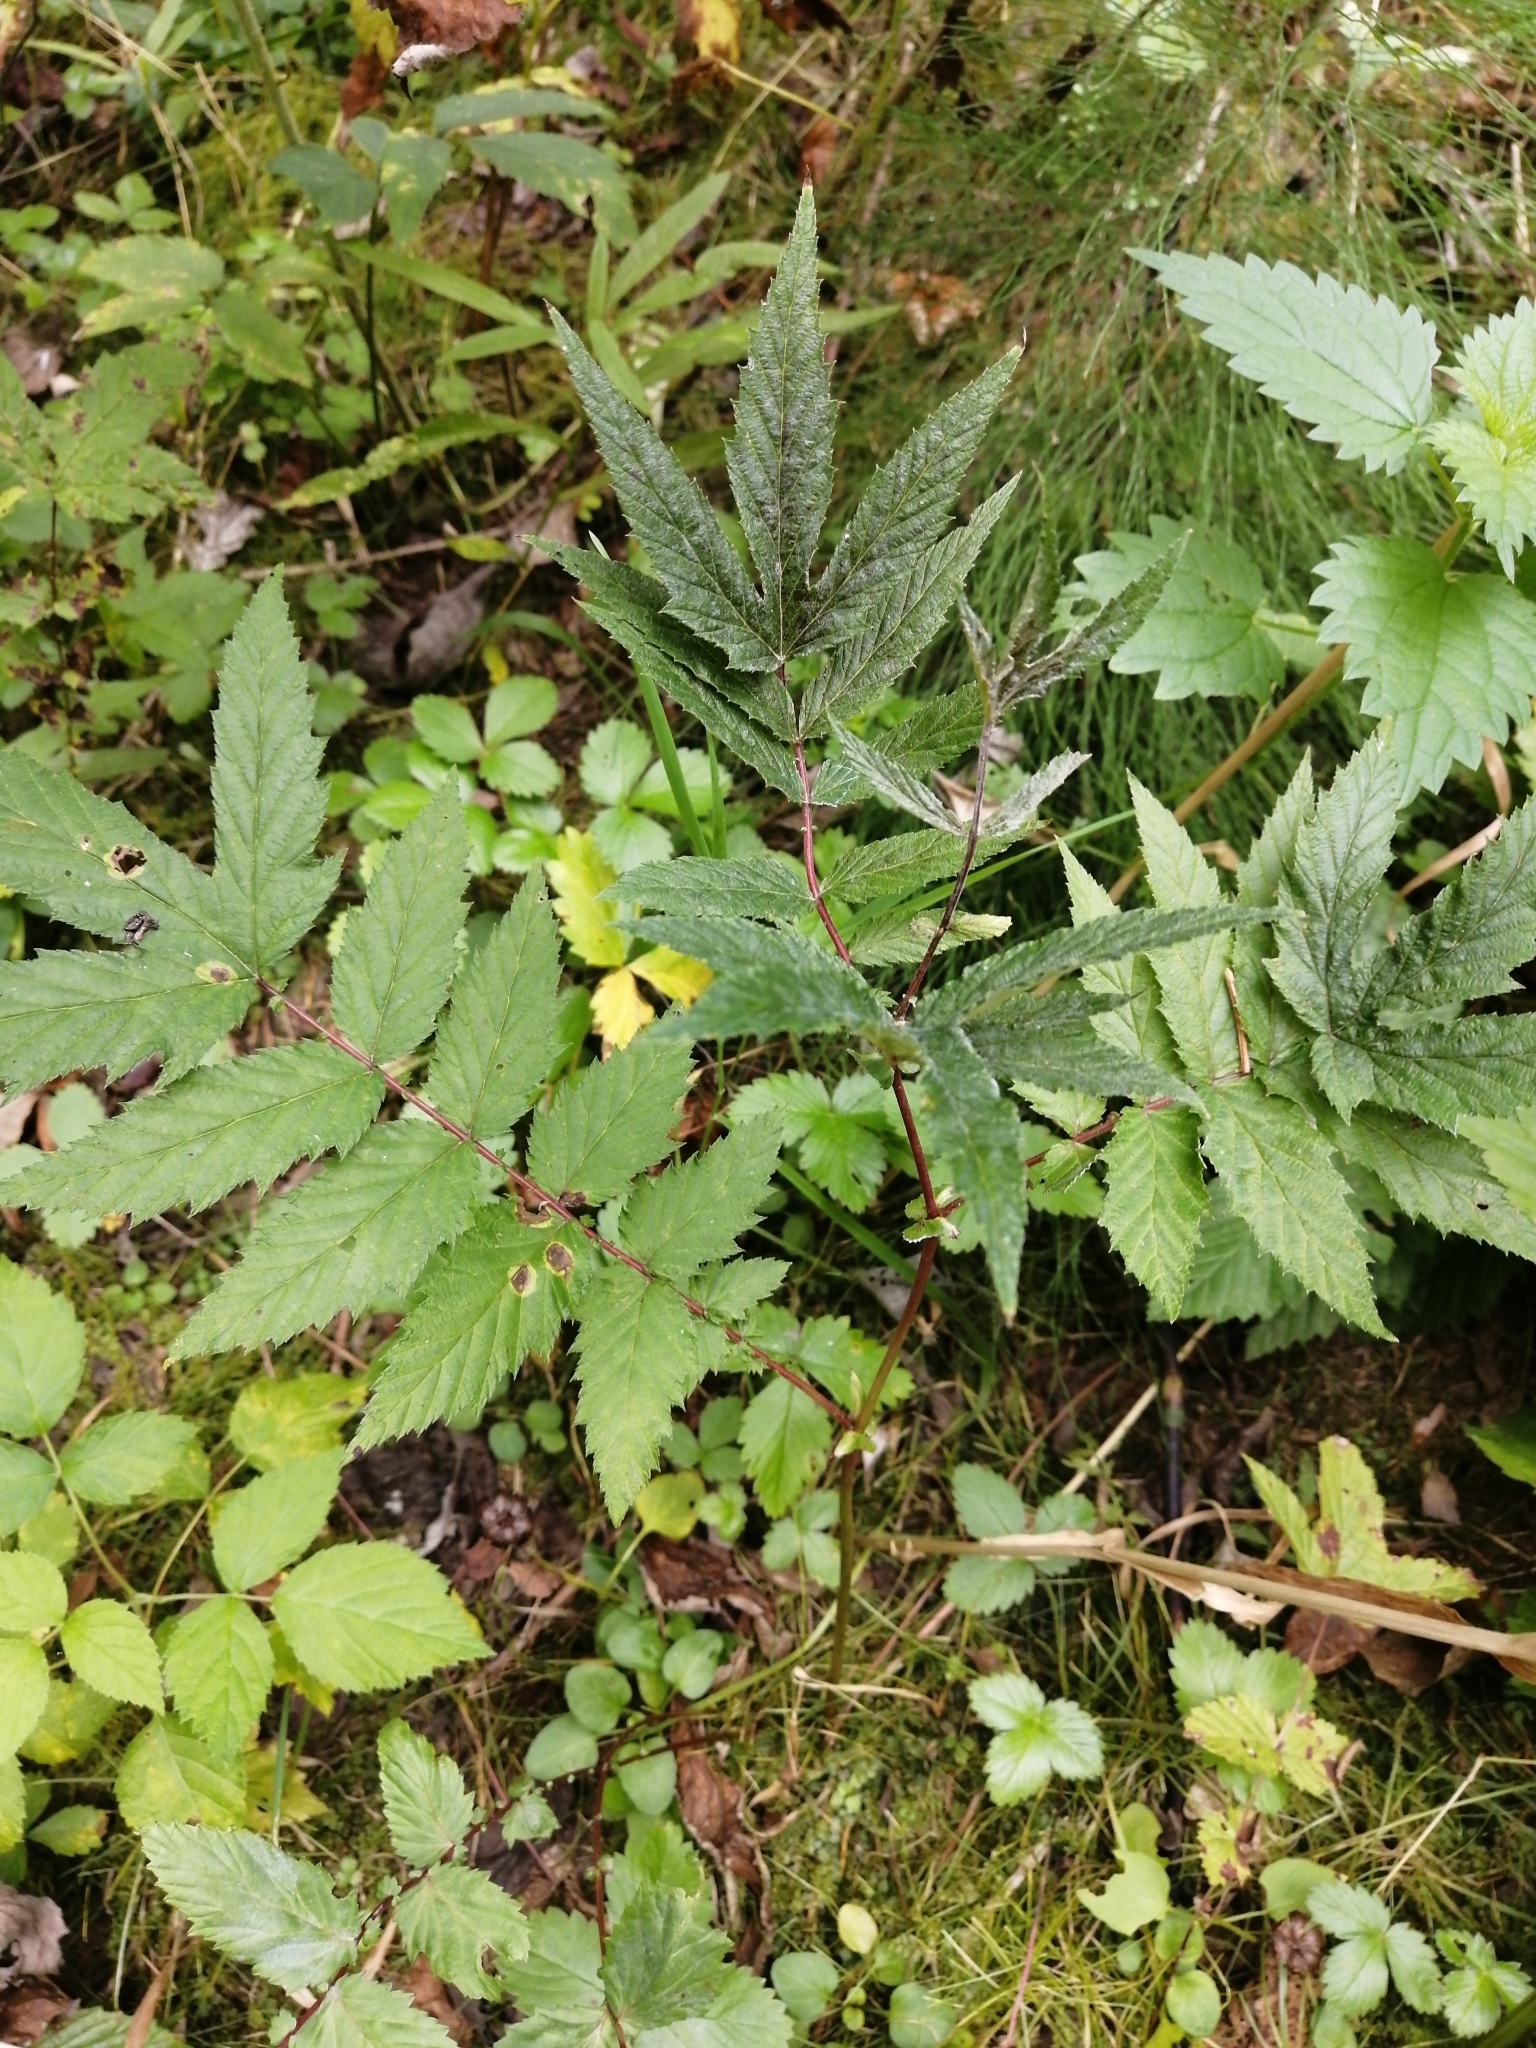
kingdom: Plantae
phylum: Tracheophyta
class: Magnoliopsida
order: Rosales
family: Rosaceae
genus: Filipendula
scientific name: Filipendula ulmaria
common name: Meadowsweet
